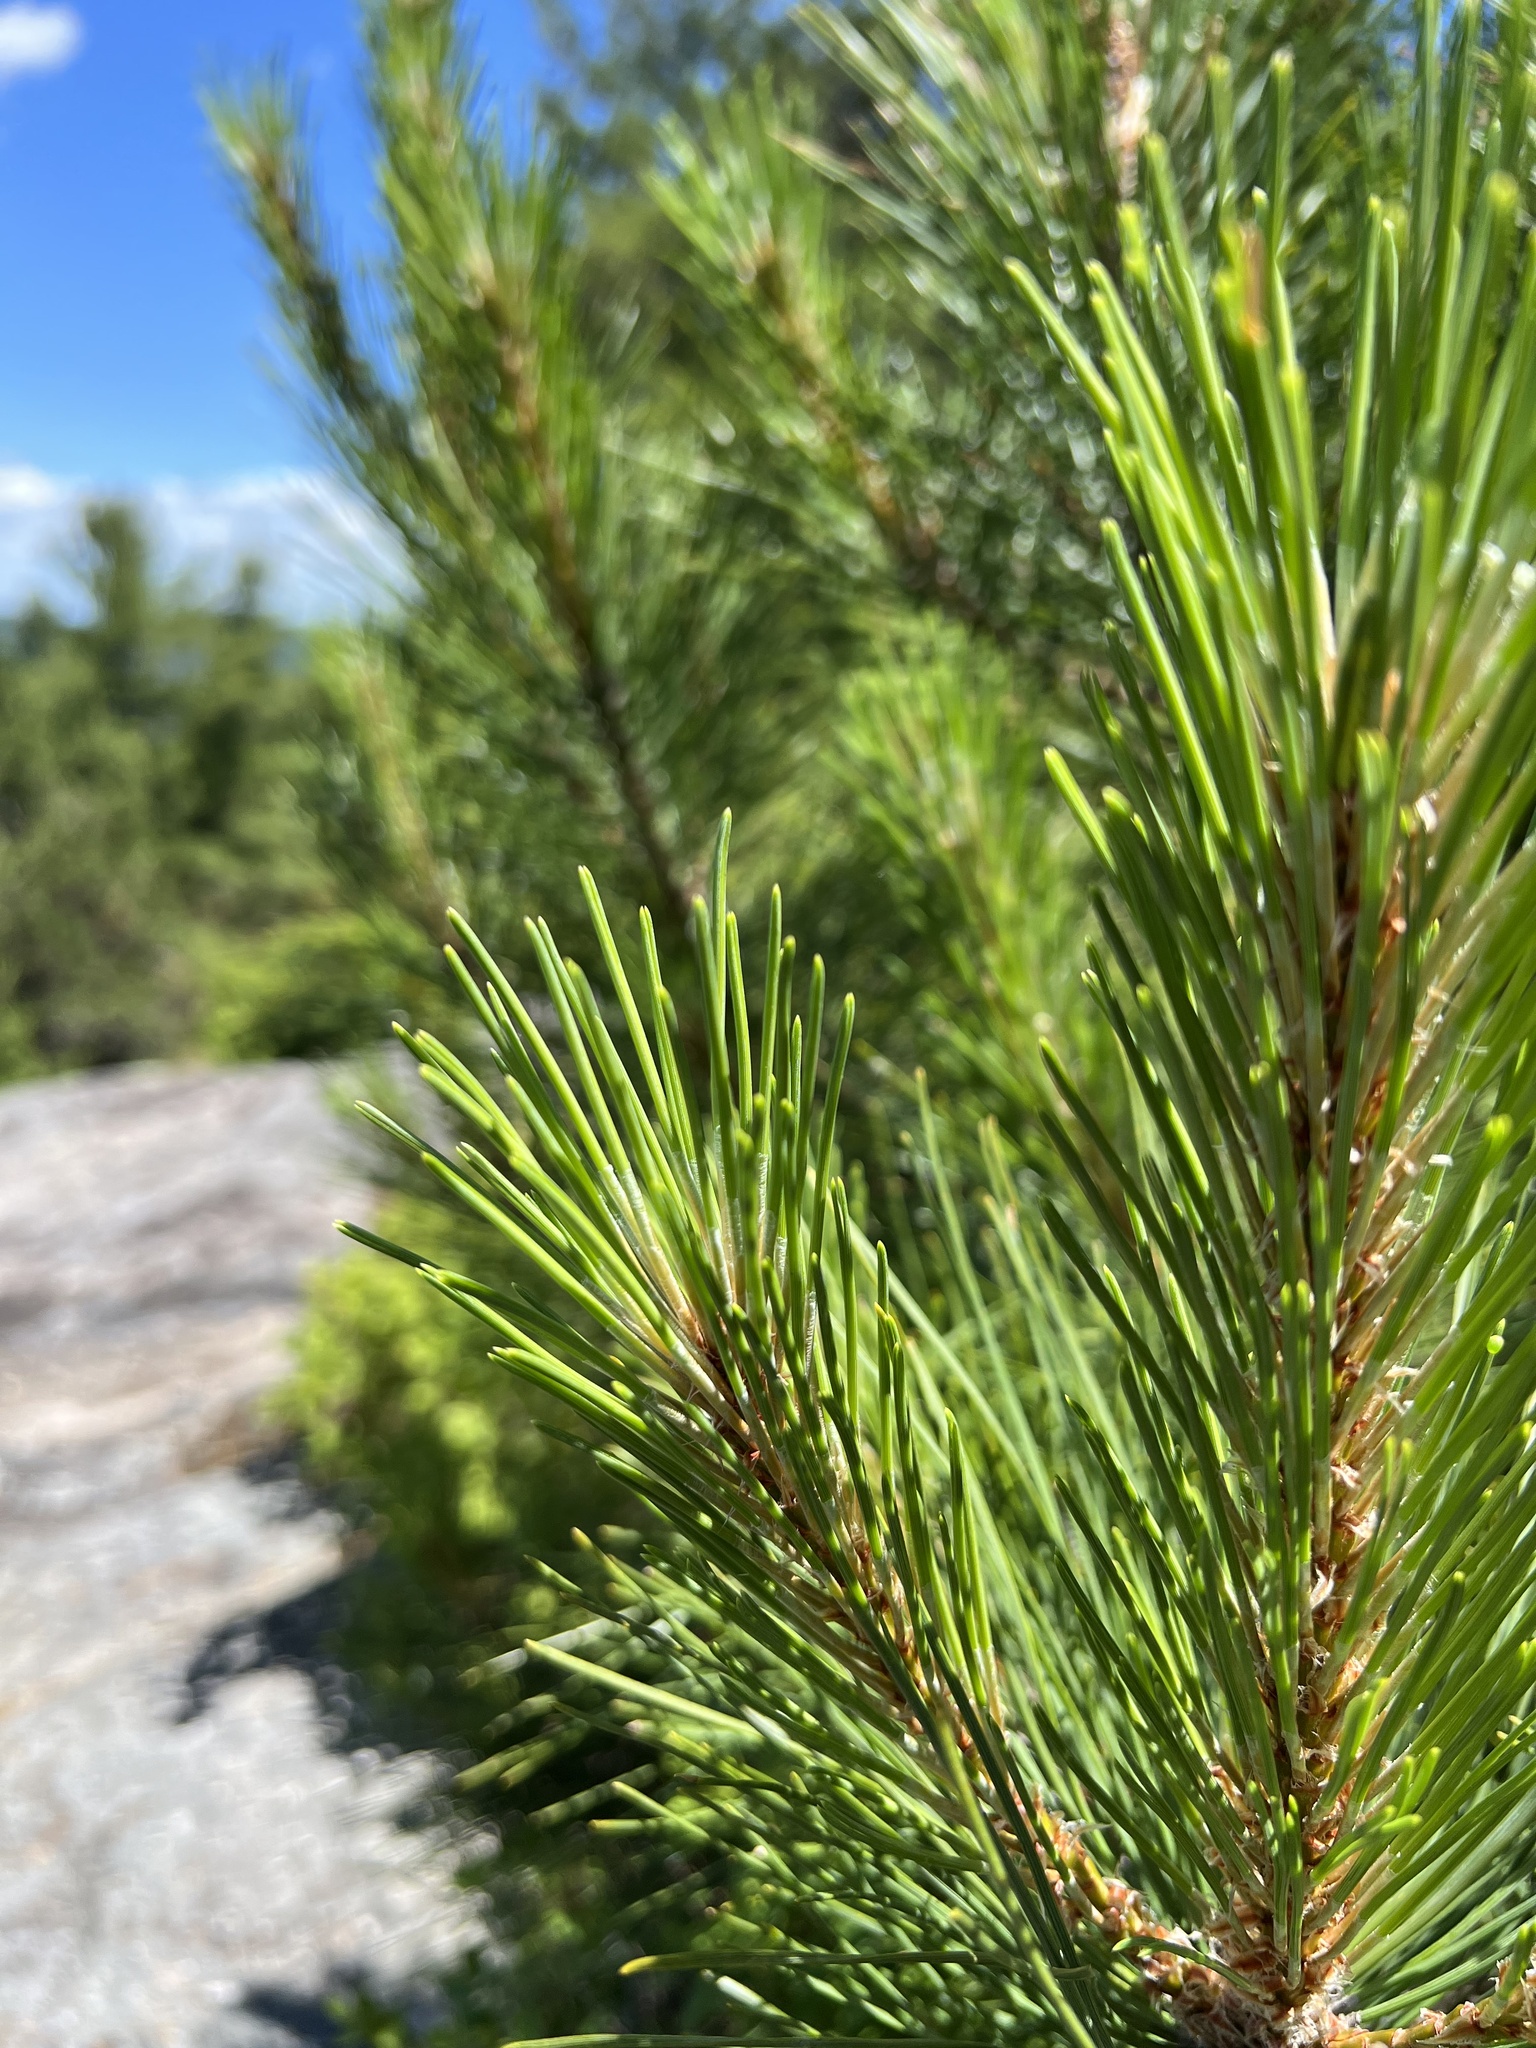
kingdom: Plantae
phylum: Tracheophyta
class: Pinopsida
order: Pinales
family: Pinaceae
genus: Pinus
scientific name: Pinus resinosa
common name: Norway pine
